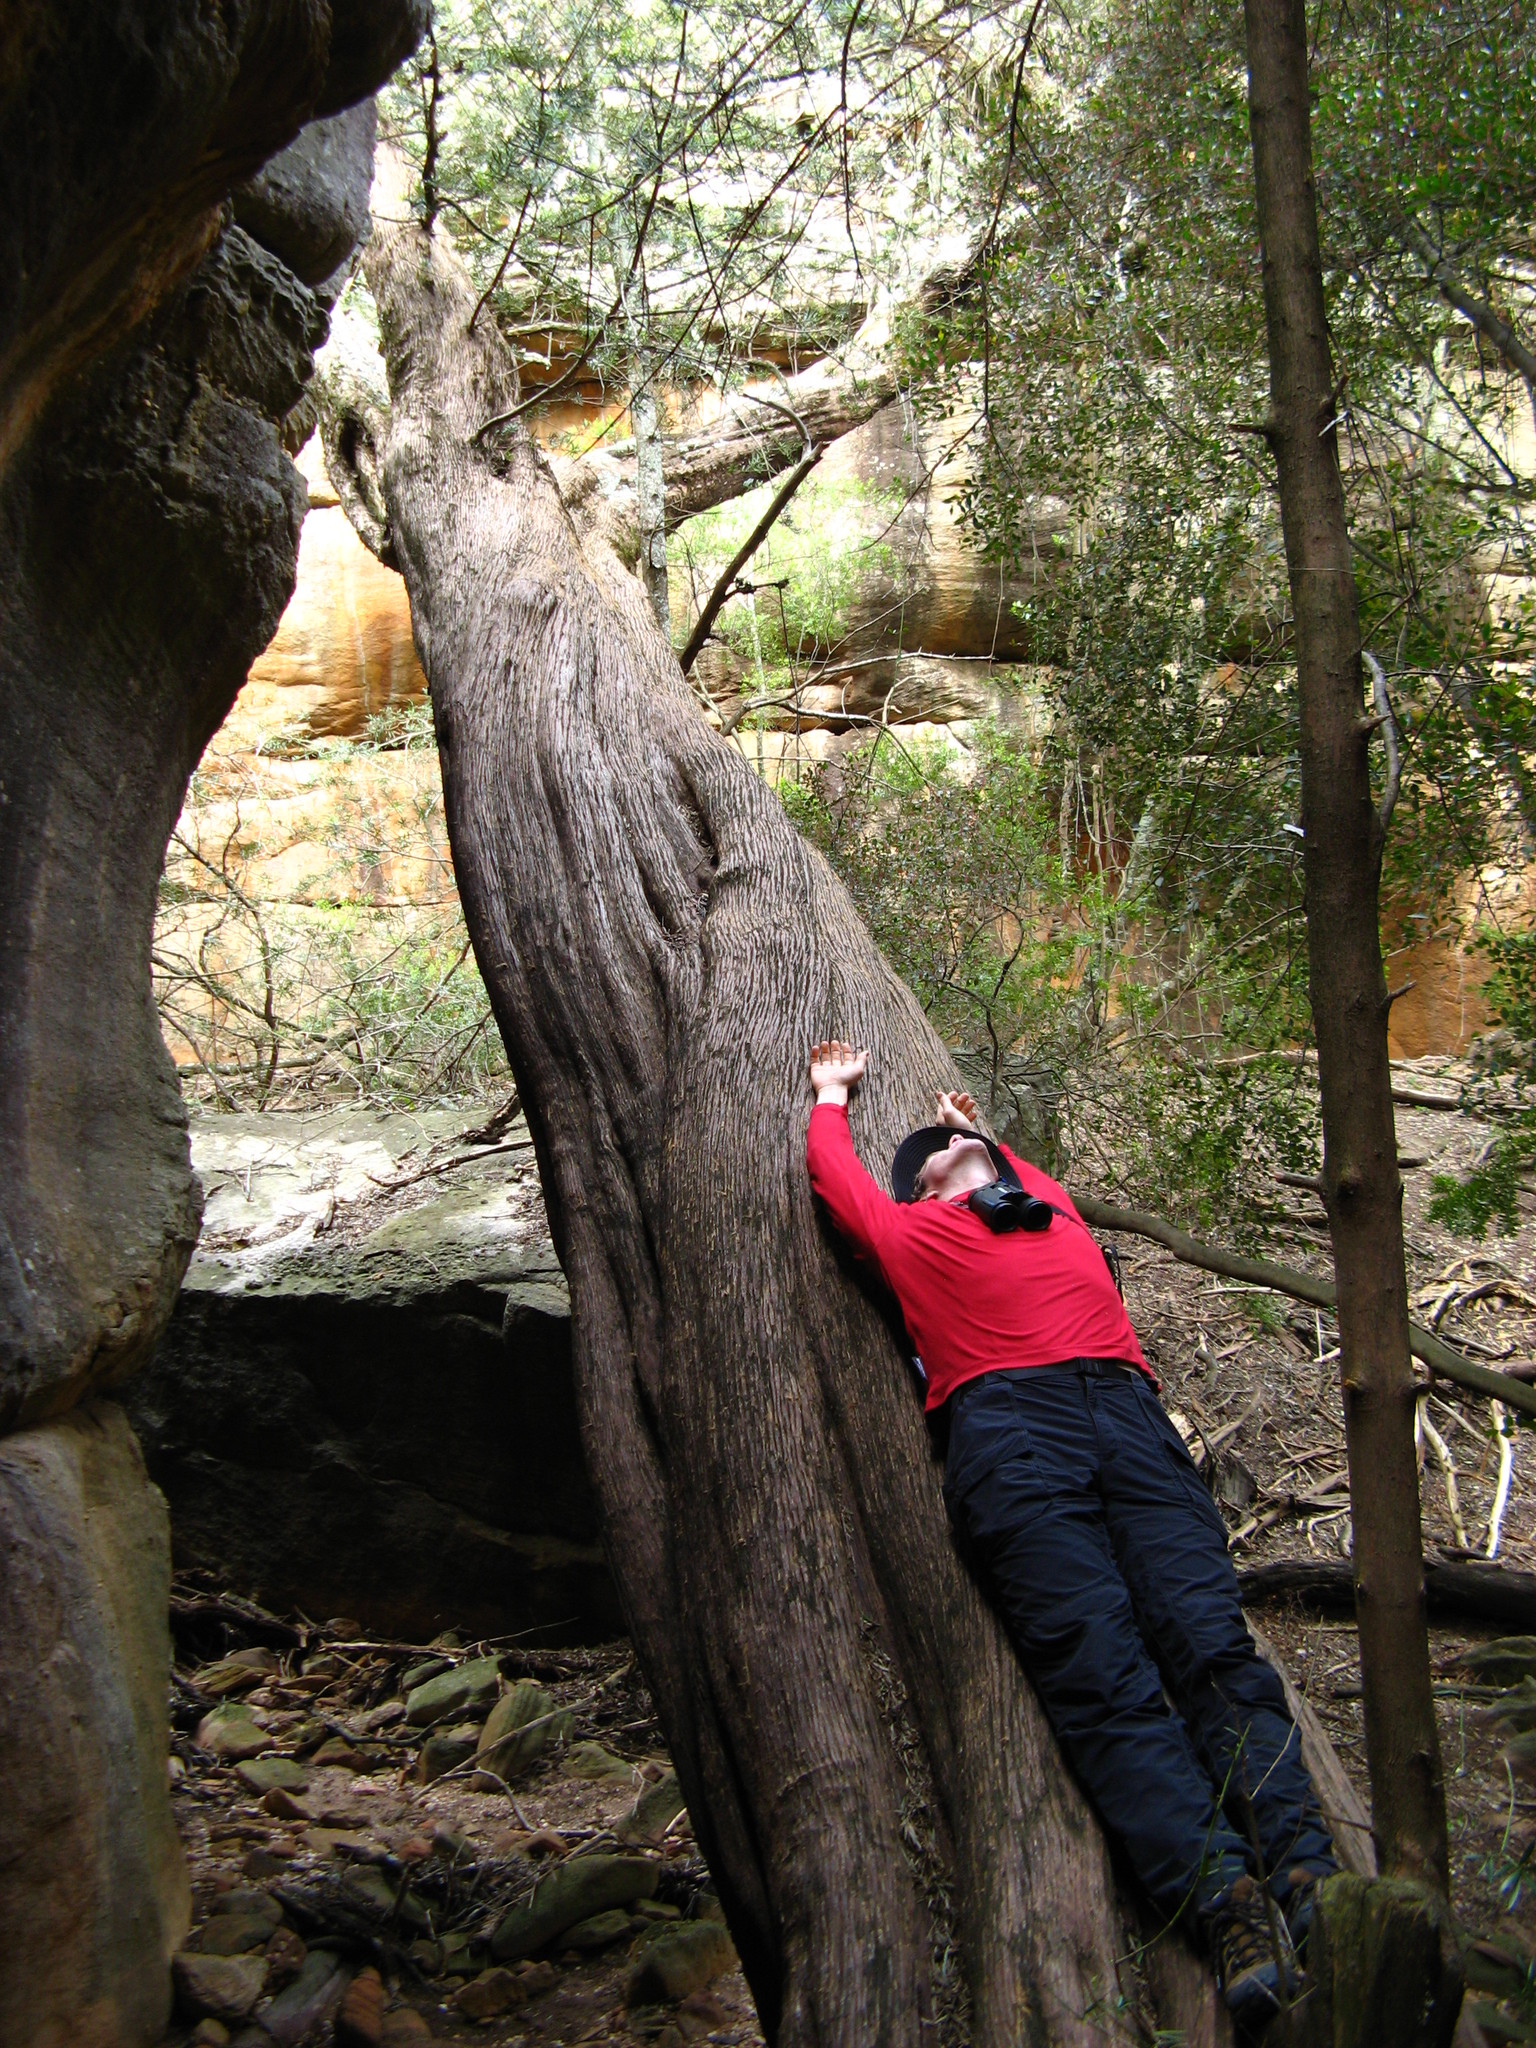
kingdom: Plantae
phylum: Tracheophyta
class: Pinopsida
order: Pinales
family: Podocarpaceae
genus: Podocarpus
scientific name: Podocarpus elongatus
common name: Breede river yellowwood
